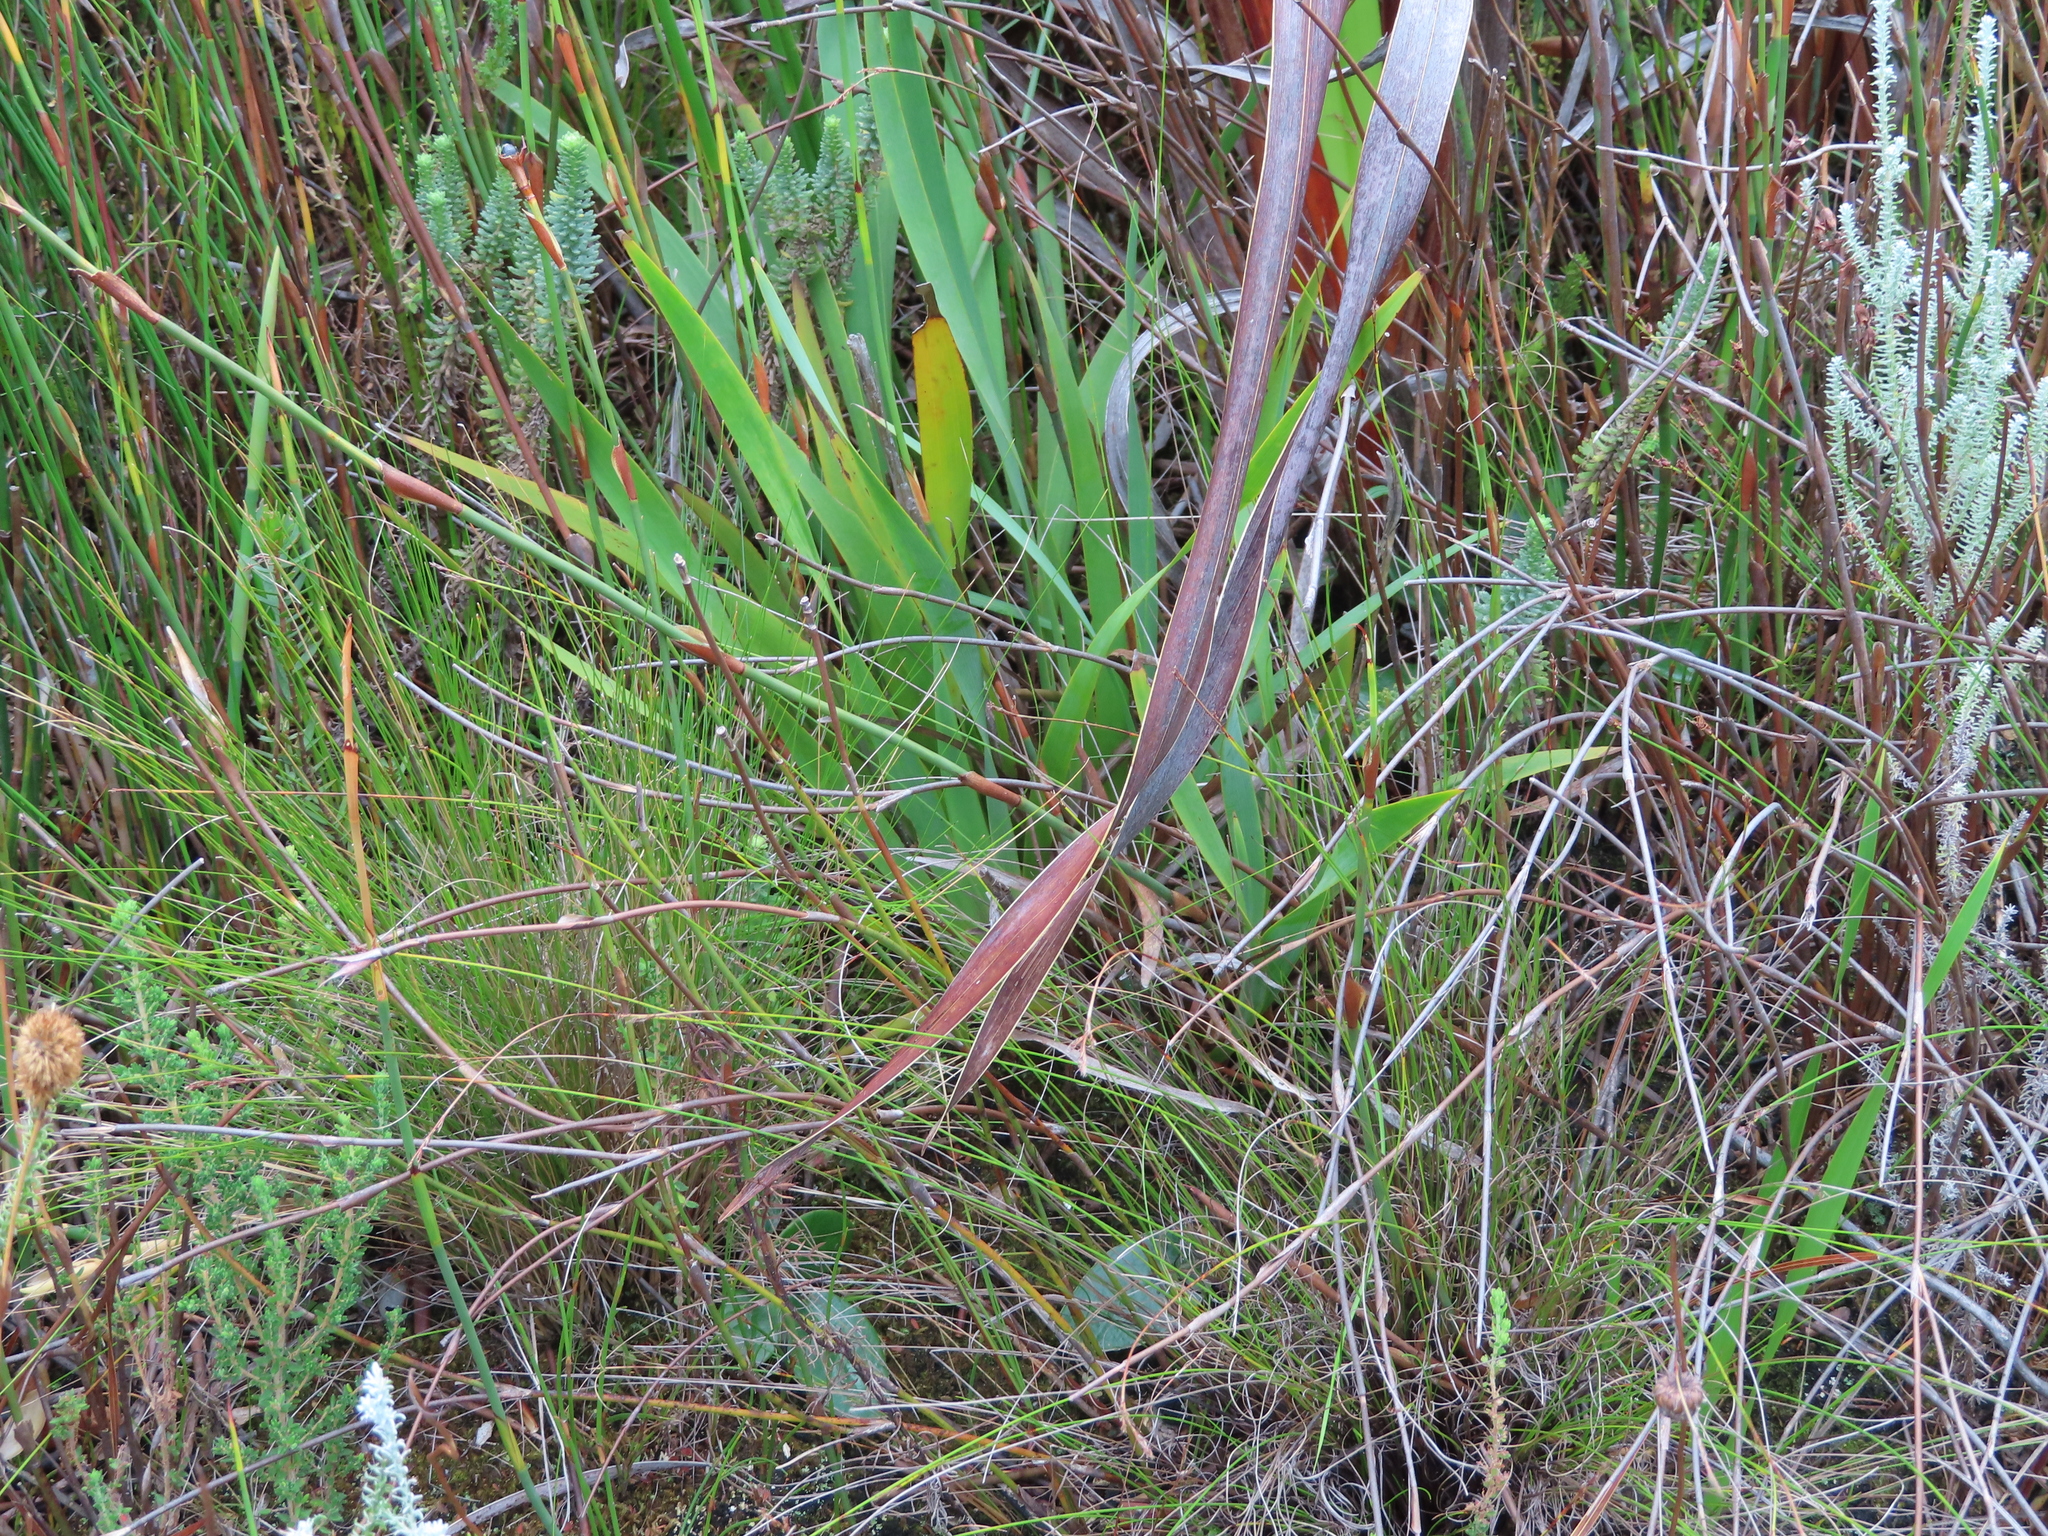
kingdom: Plantae
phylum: Tracheophyta
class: Liliopsida
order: Asparagales
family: Iridaceae
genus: Watsonia
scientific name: Watsonia borbonica
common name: Bugle-lily
